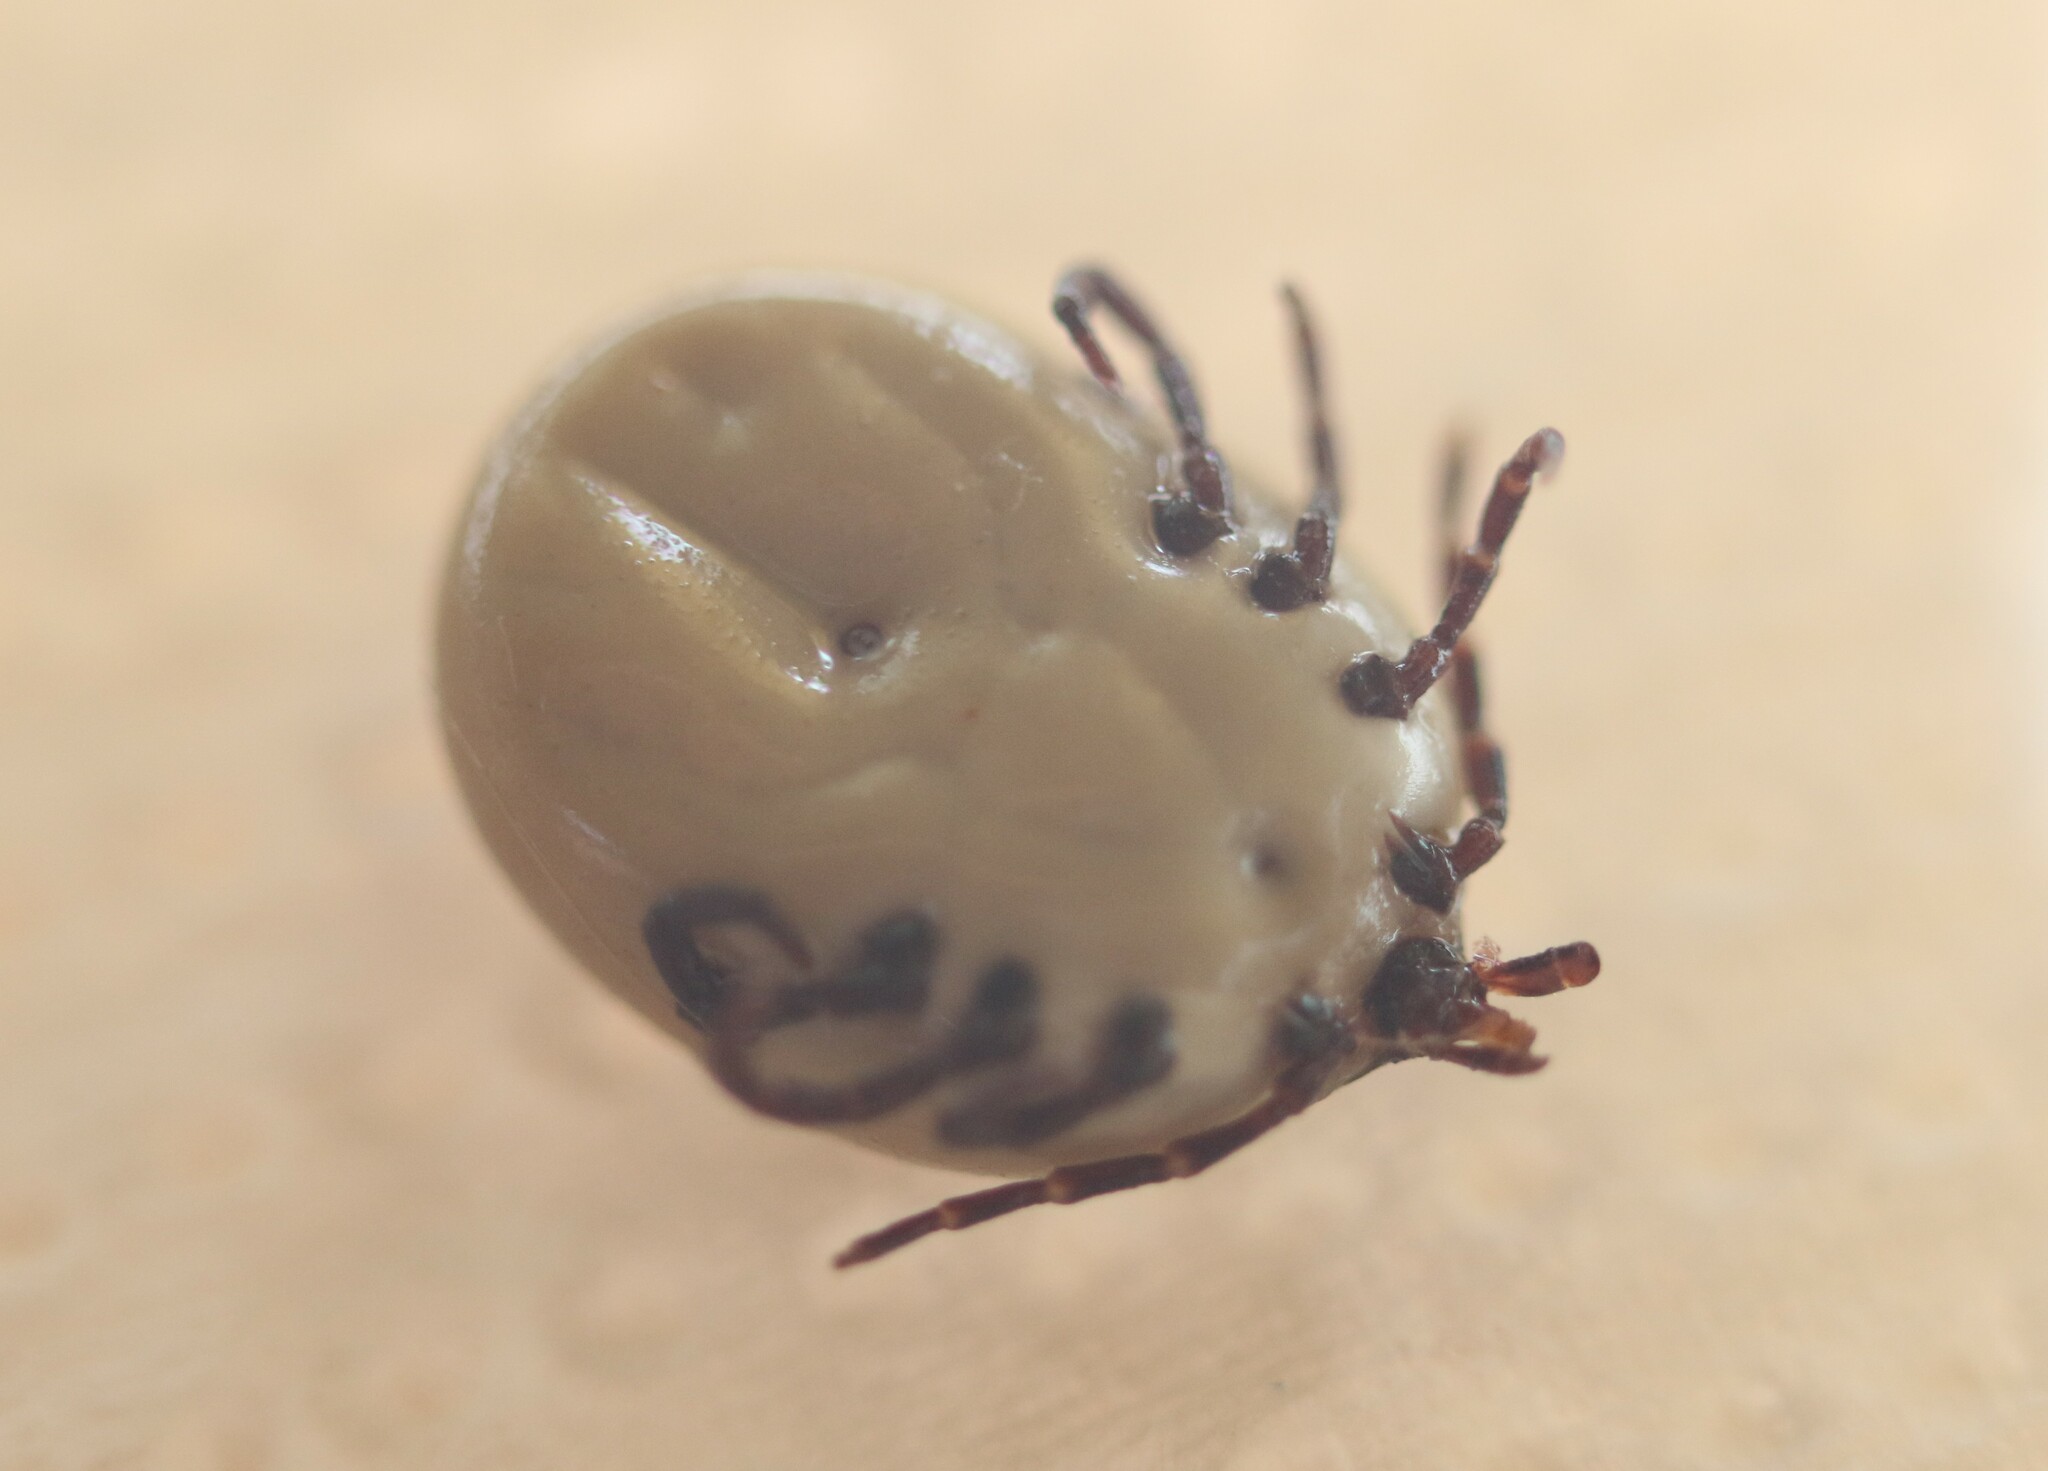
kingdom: Animalia
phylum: Arthropoda
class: Arachnida
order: Ixodida
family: Ixodidae
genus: Amblyomma
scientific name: Amblyomma ovale
